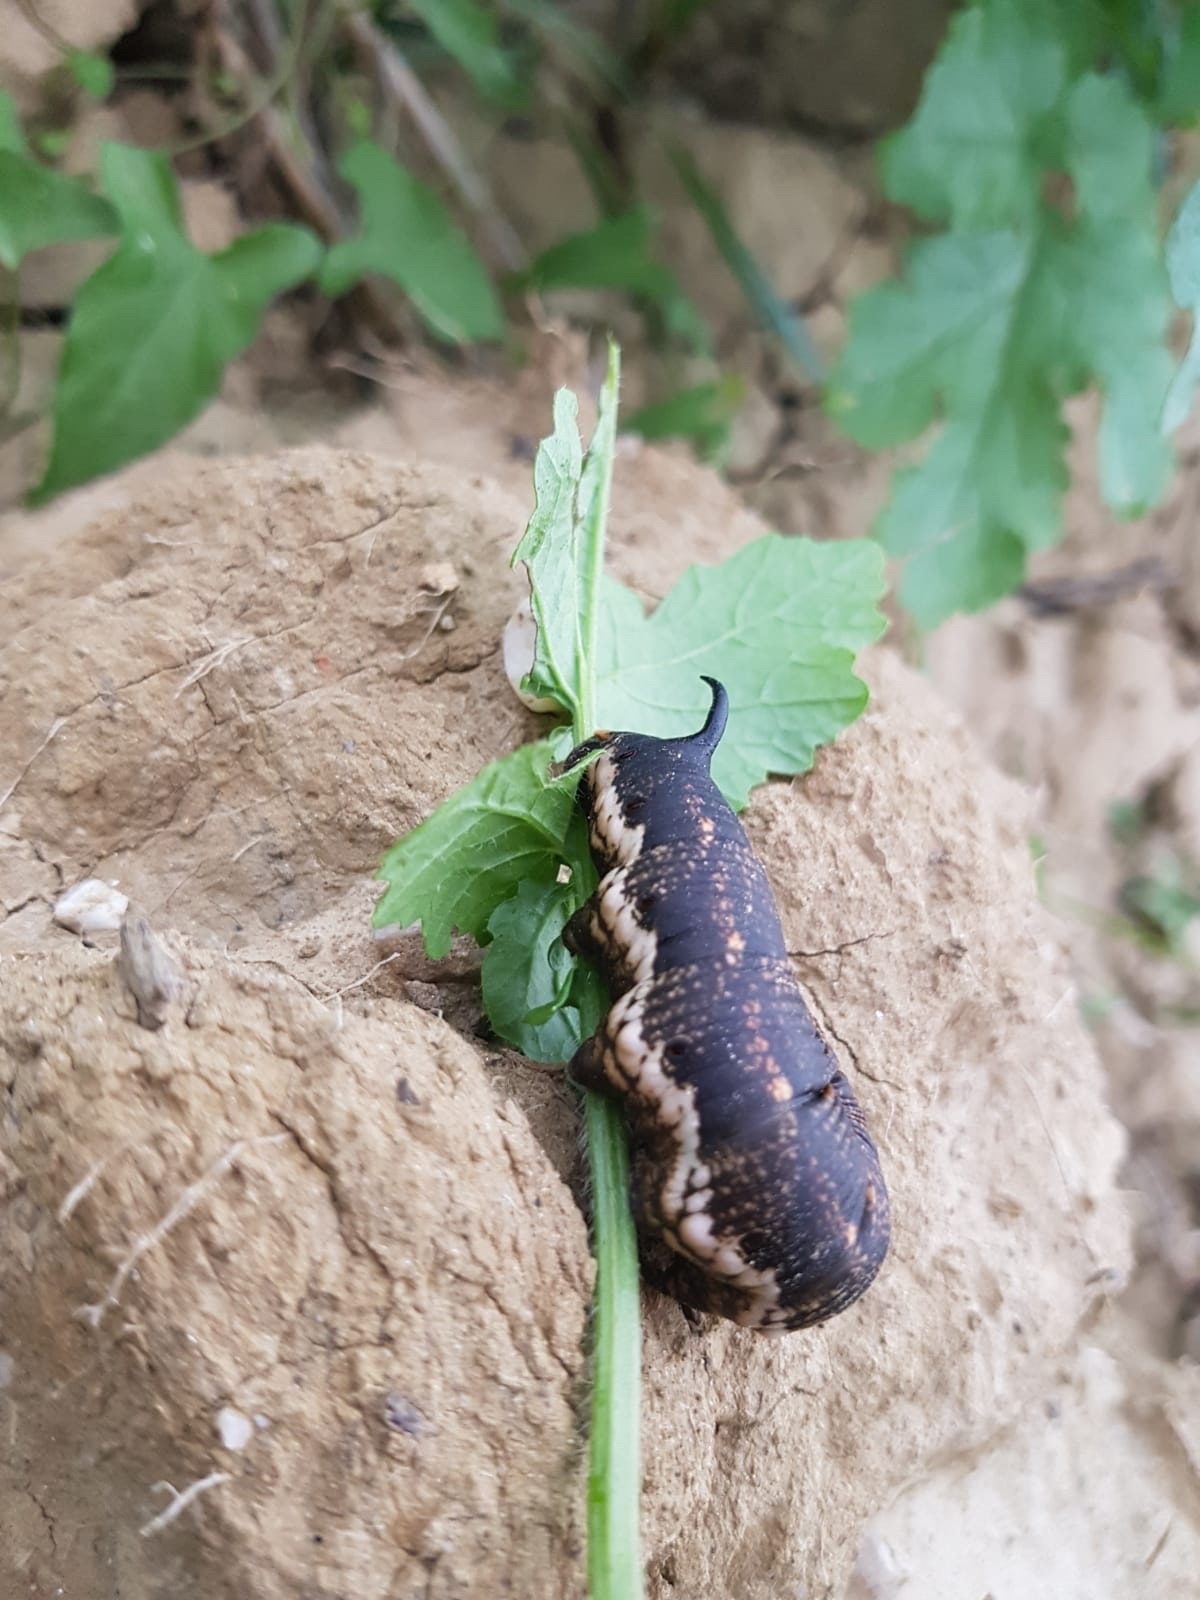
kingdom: Animalia
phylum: Arthropoda
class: Insecta
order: Lepidoptera
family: Sphingidae
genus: Agrius
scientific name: Agrius convolvuli
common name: Convolvulus hawkmoth
